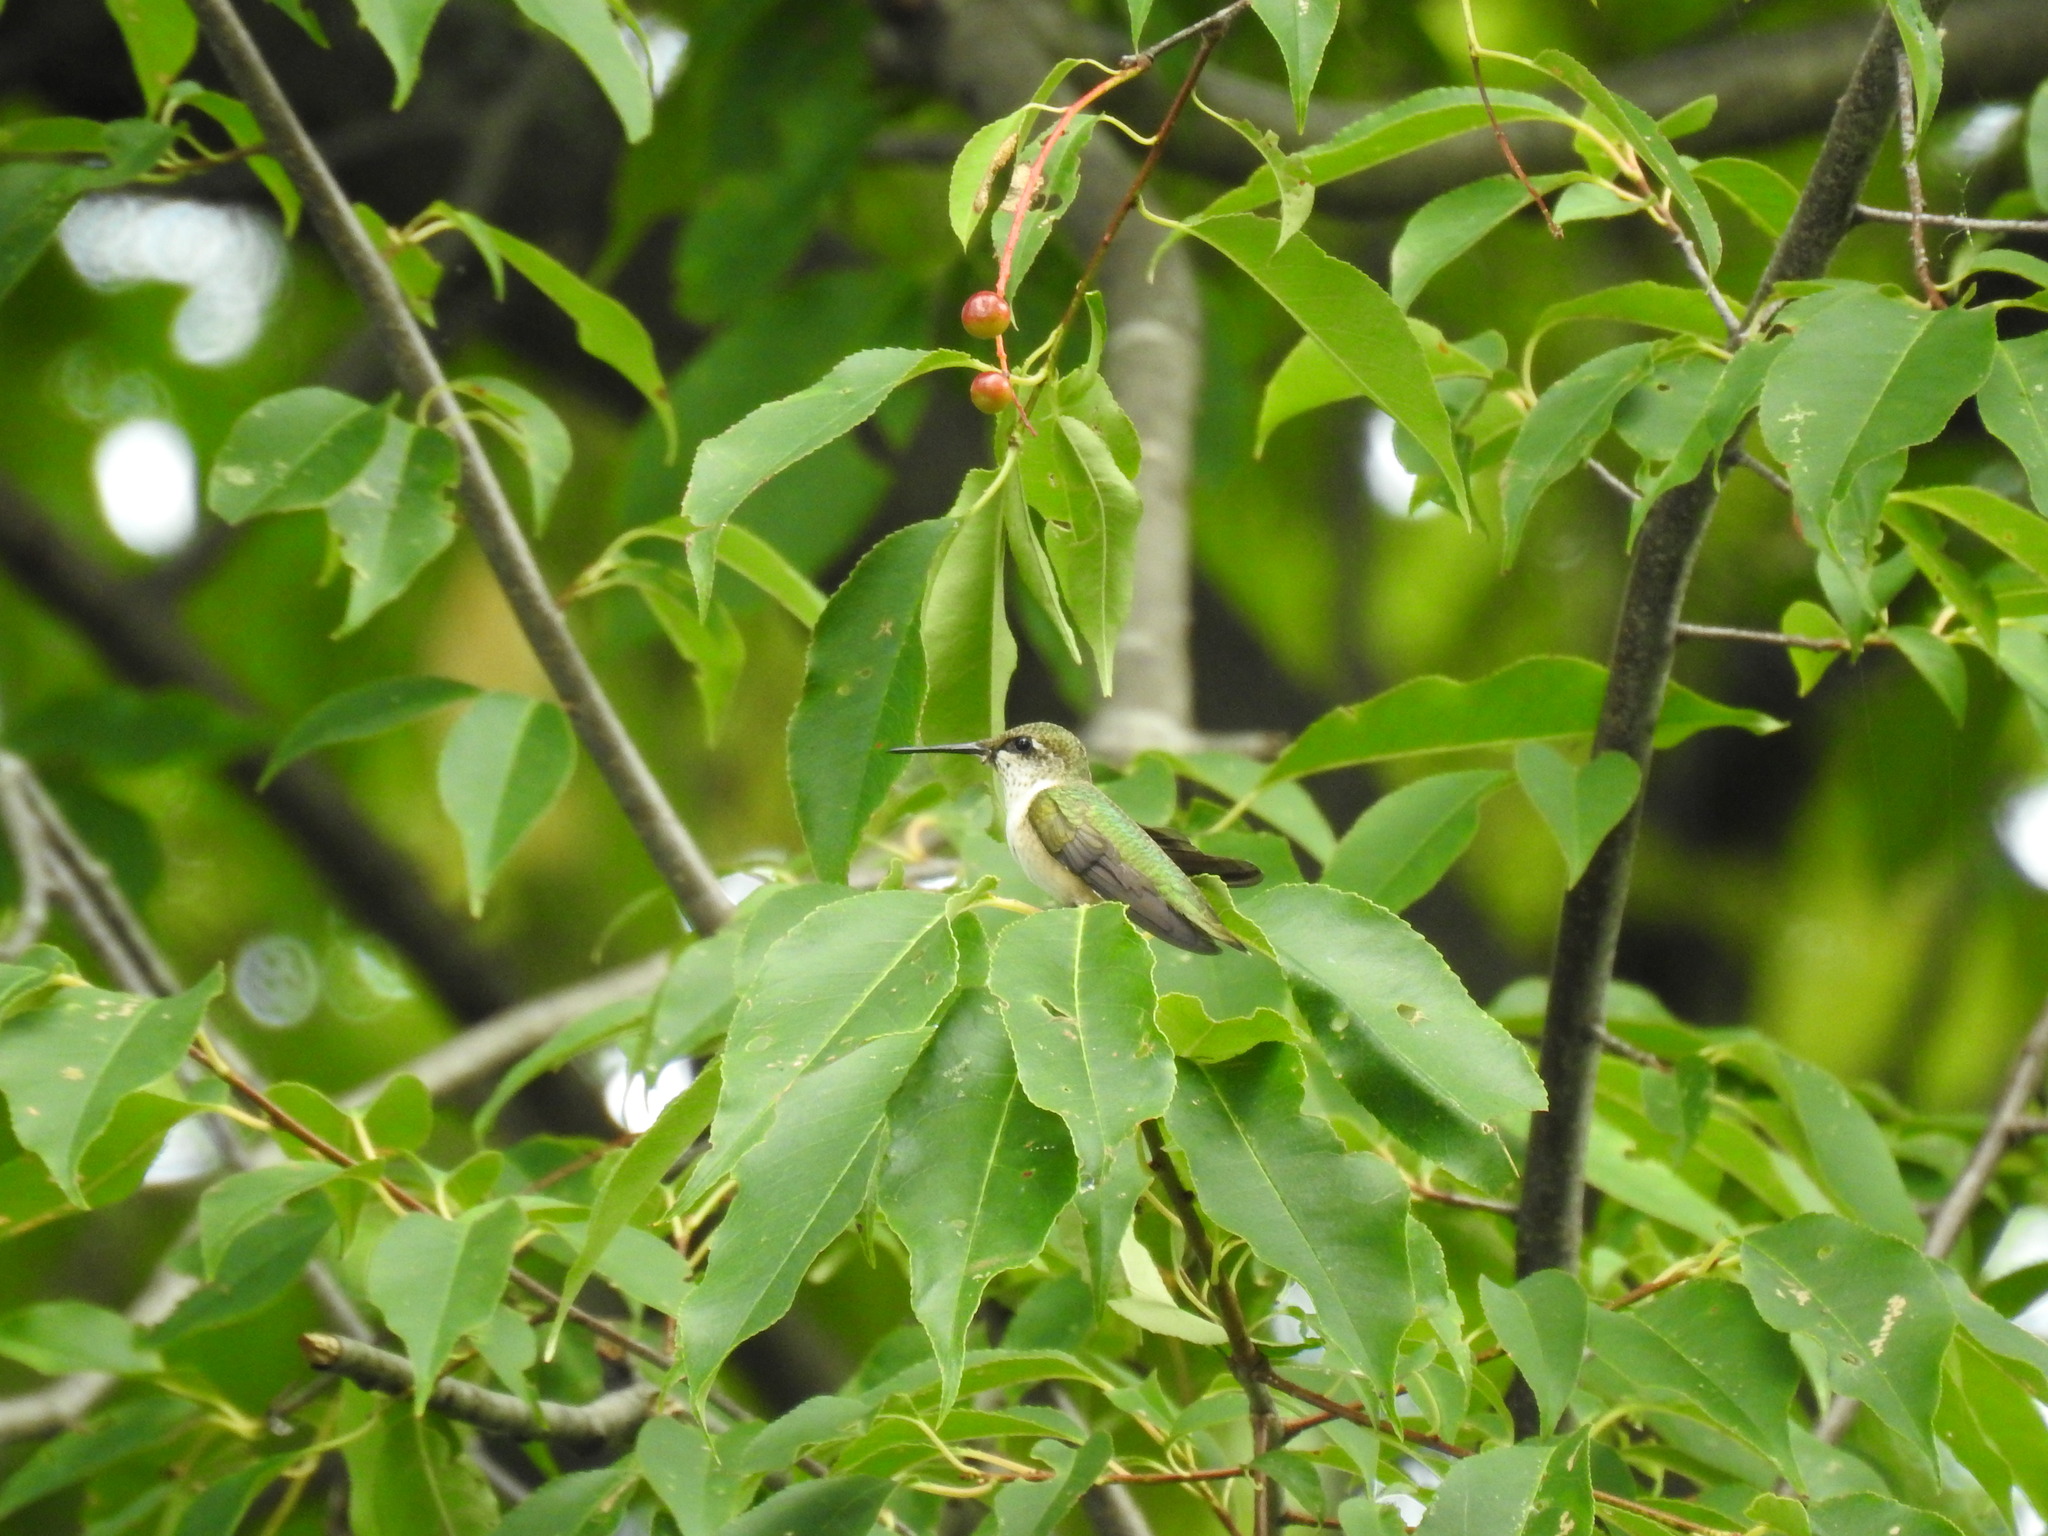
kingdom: Animalia
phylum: Chordata
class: Aves
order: Apodiformes
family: Trochilidae
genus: Archilochus
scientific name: Archilochus colubris
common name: Ruby-throated hummingbird
